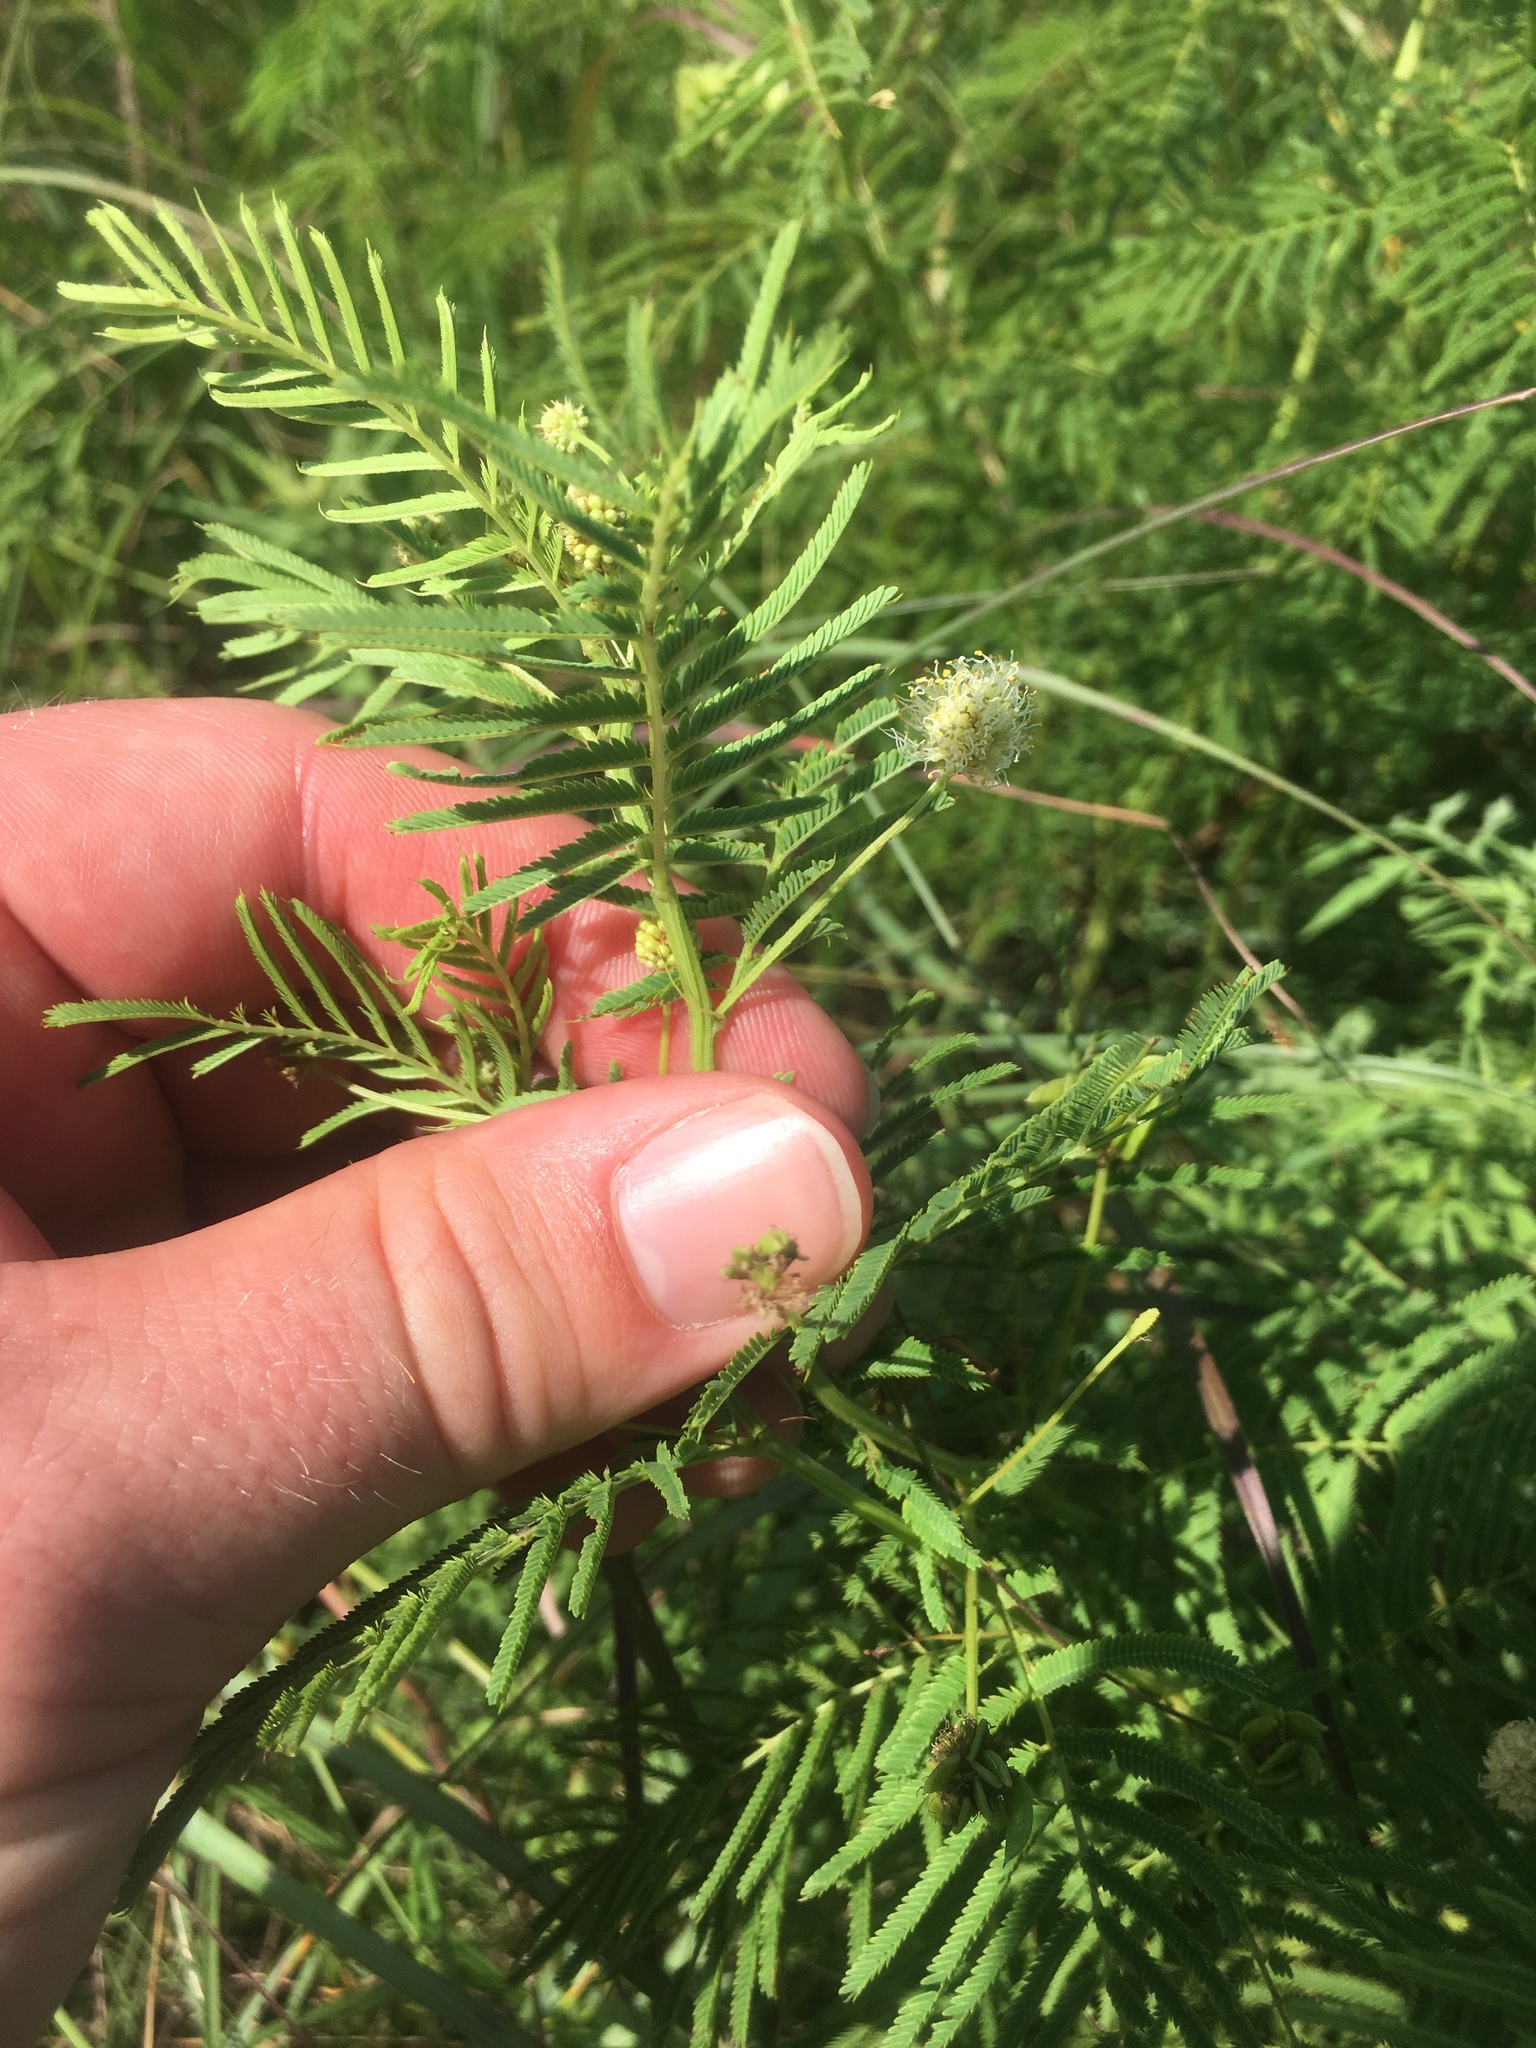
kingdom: Plantae
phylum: Tracheophyta
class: Magnoliopsida
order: Fabales
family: Fabaceae
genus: Desmanthus
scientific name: Desmanthus illinoensis
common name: Illinois bundle-flower
